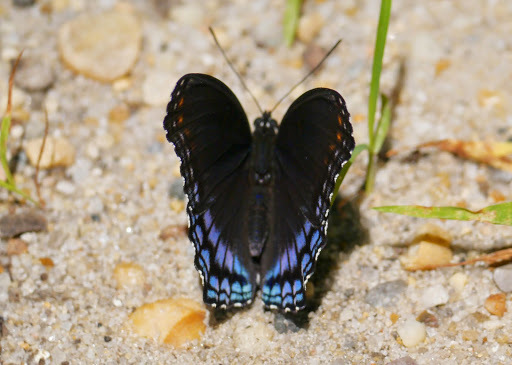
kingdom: Animalia
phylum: Arthropoda
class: Insecta
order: Lepidoptera
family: Nymphalidae
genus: Limenitis
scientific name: Limenitis arthemis
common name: Red-spotted admiral
